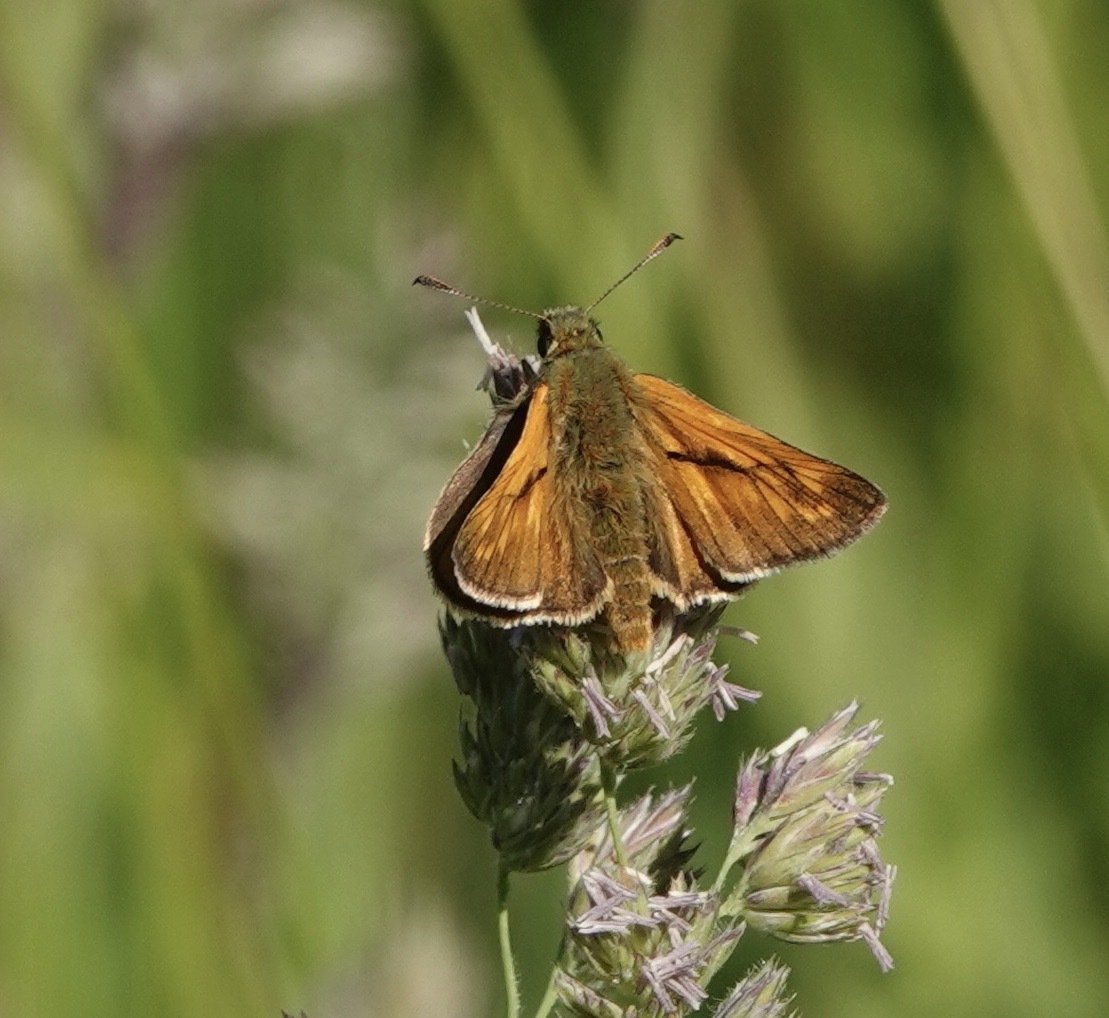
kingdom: Animalia
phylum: Arthropoda
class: Insecta
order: Lepidoptera
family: Hesperiidae
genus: Ochlodes
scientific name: Ochlodes venata
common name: Large skipper
